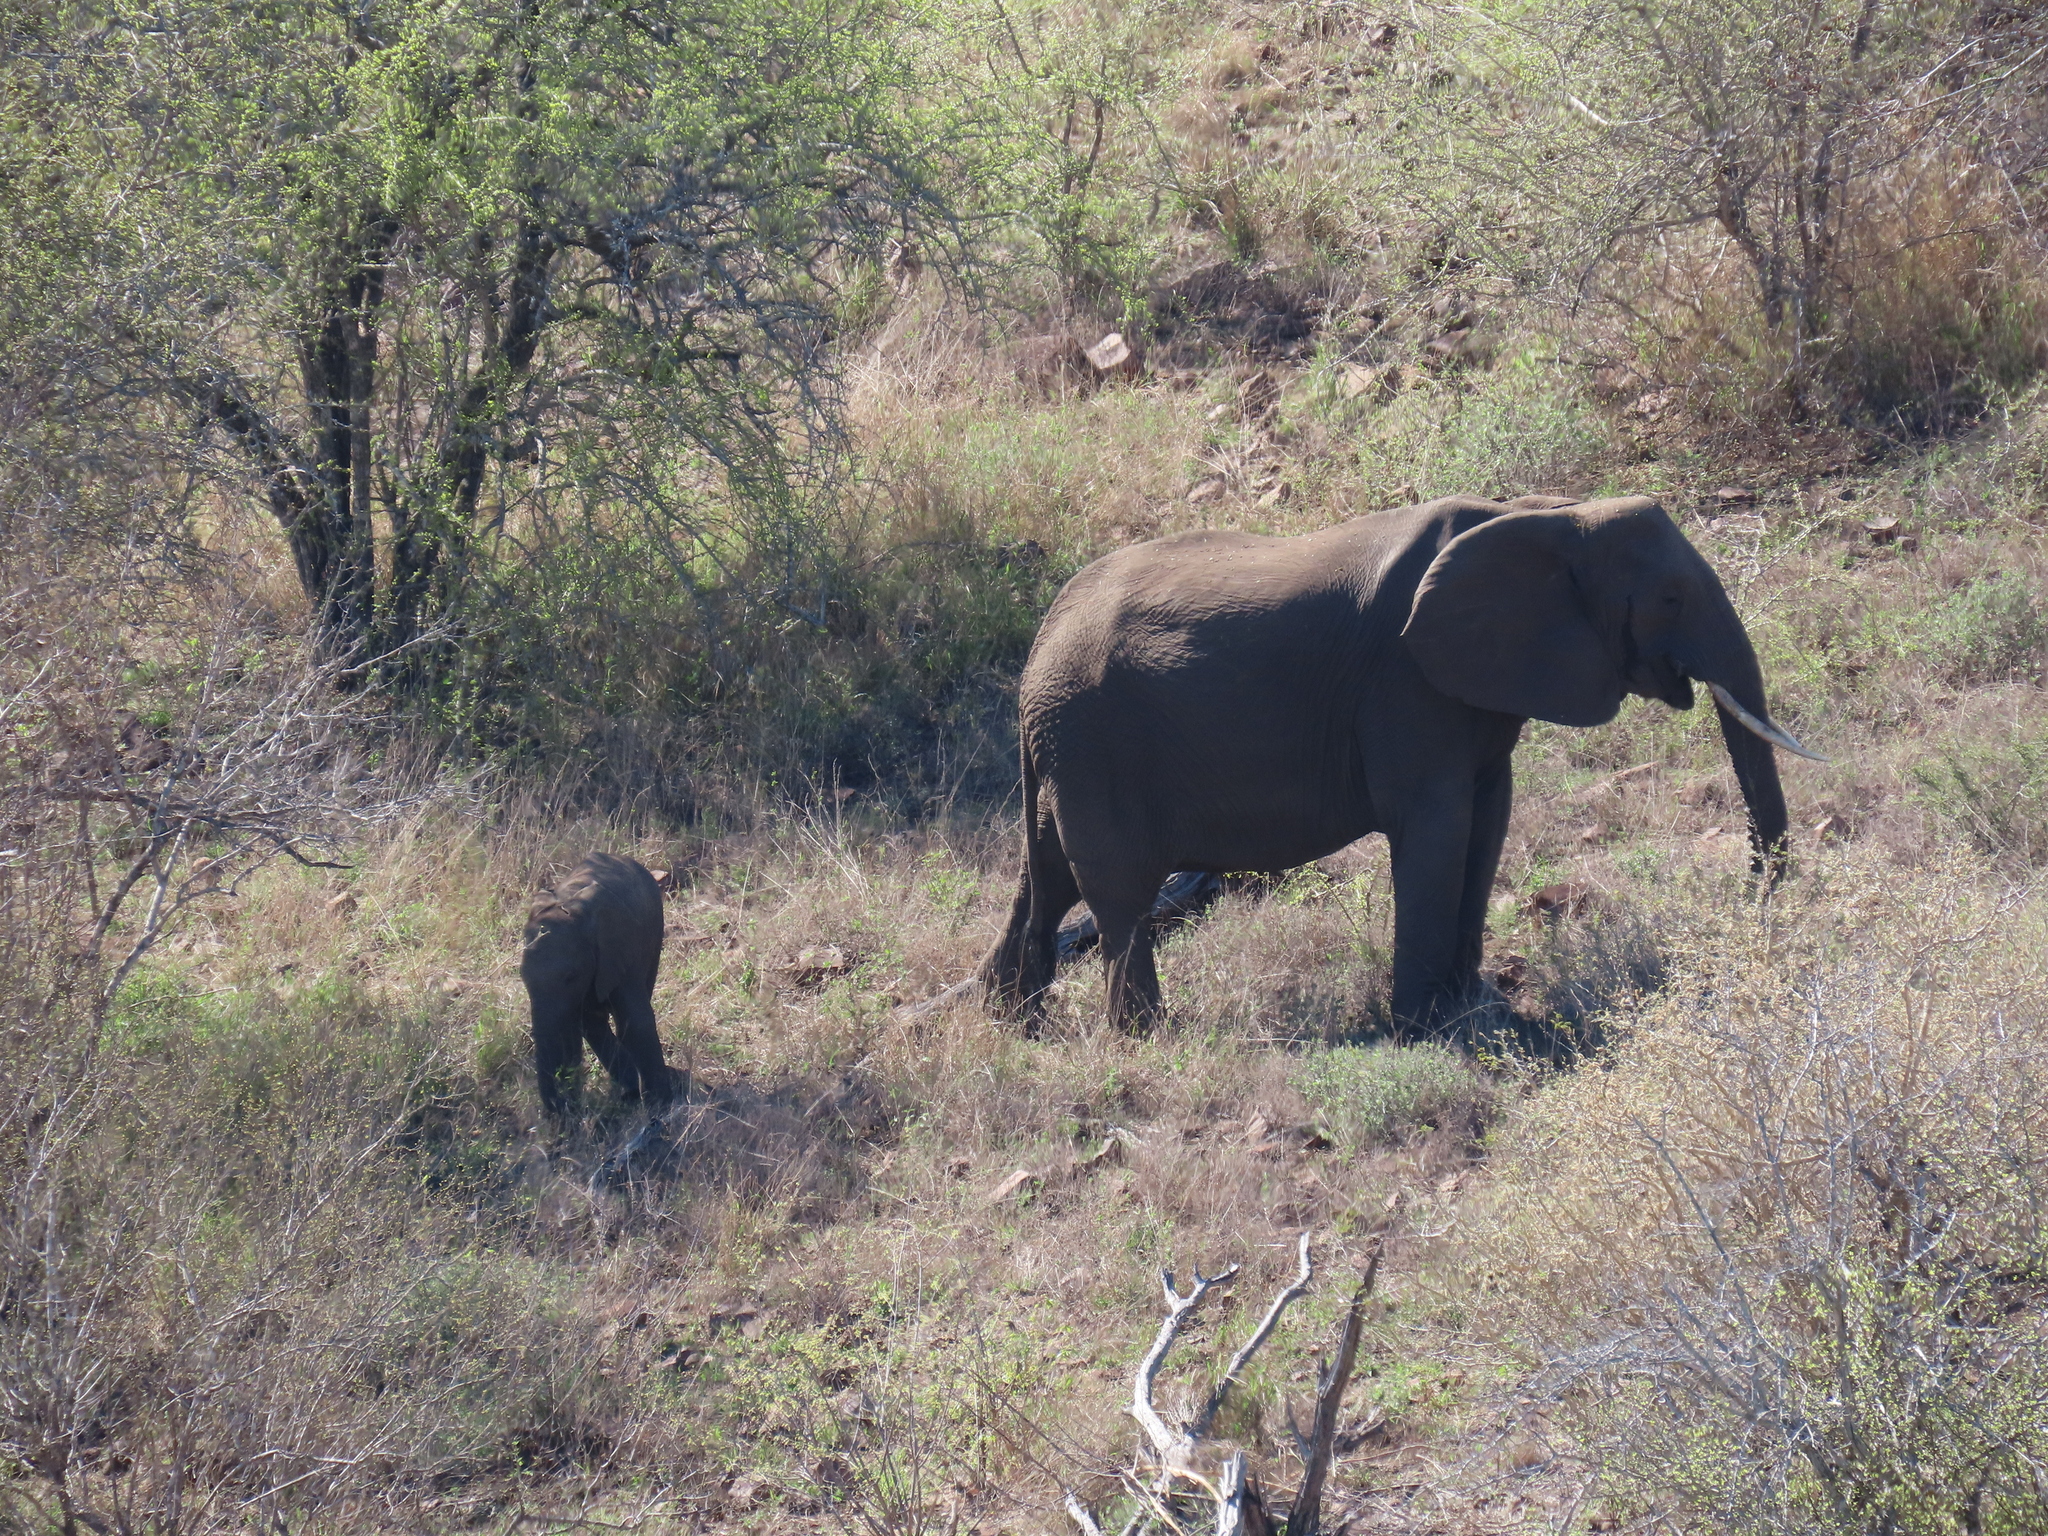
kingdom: Animalia
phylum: Chordata
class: Mammalia
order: Proboscidea
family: Elephantidae
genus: Loxodonta
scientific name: Loxodonta africana
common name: African elephant
